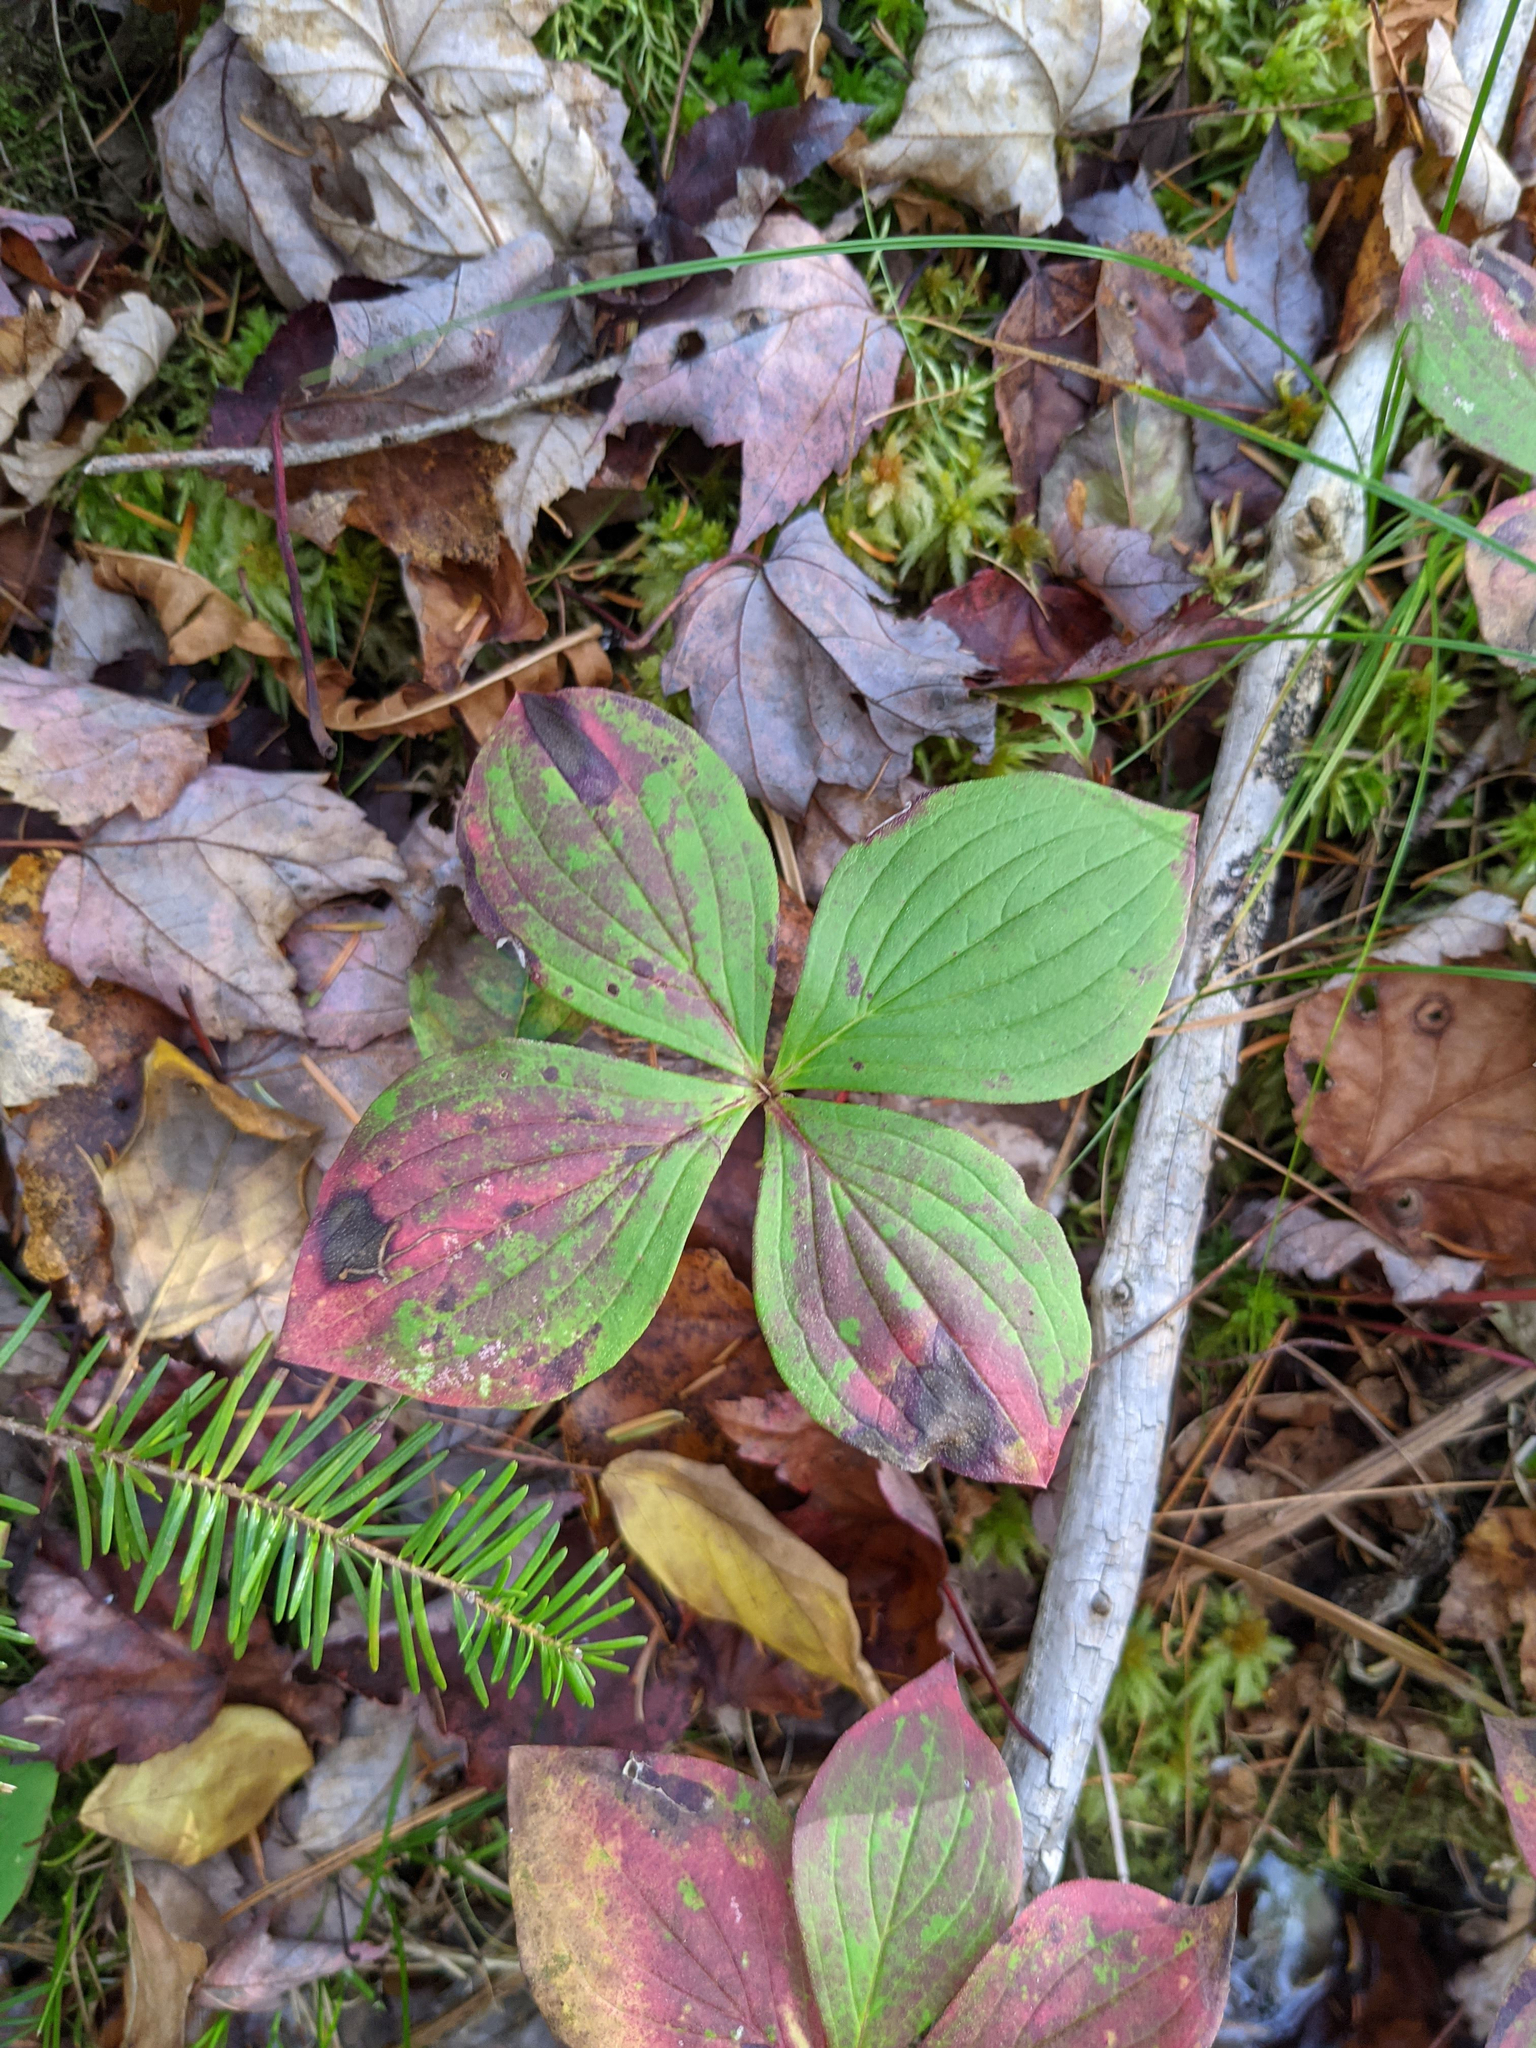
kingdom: Plantae
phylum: Tracheophyta
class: Magnoliopsida
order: Cornales
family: Cornaceae
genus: Cornus
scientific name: Cornus canadensis
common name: Creeping dogwood
